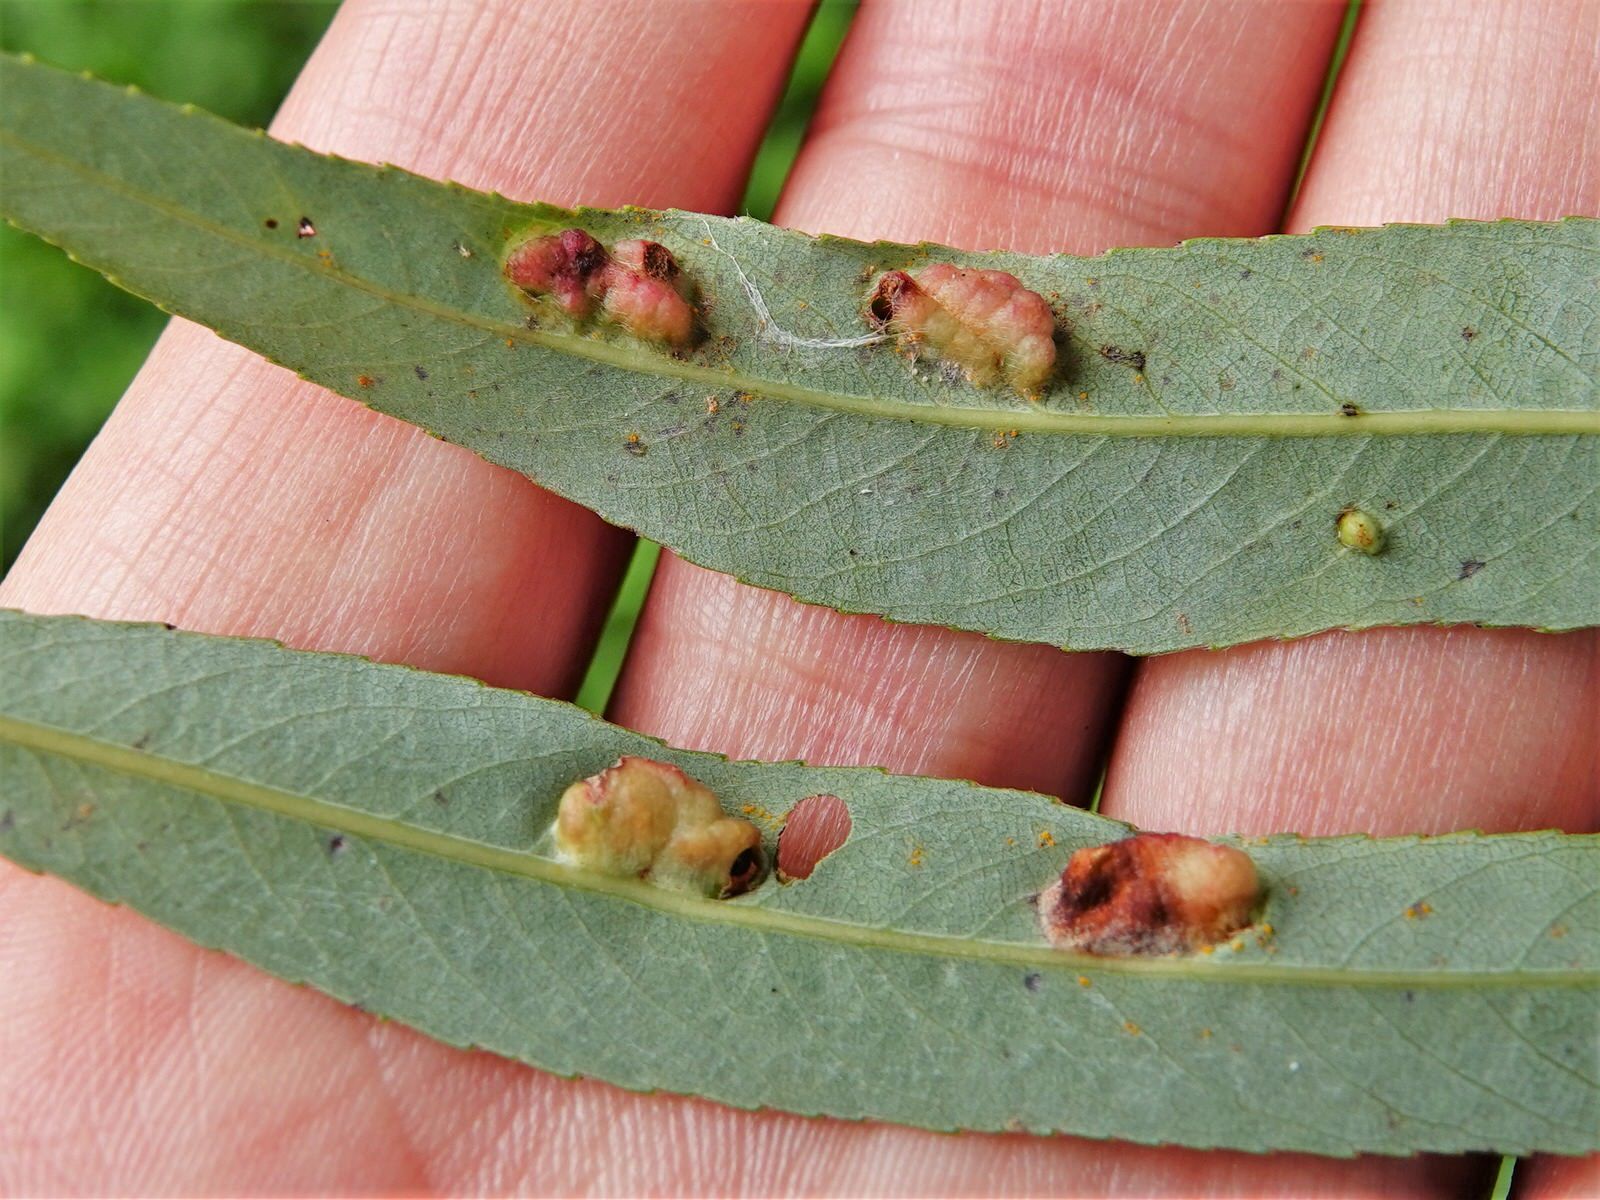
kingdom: Animalia
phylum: Arthropoda
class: Insecta
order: Hymenoptera
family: Tenthredinidae
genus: Pontania
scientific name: Pontania proxima
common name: Common sawfly
